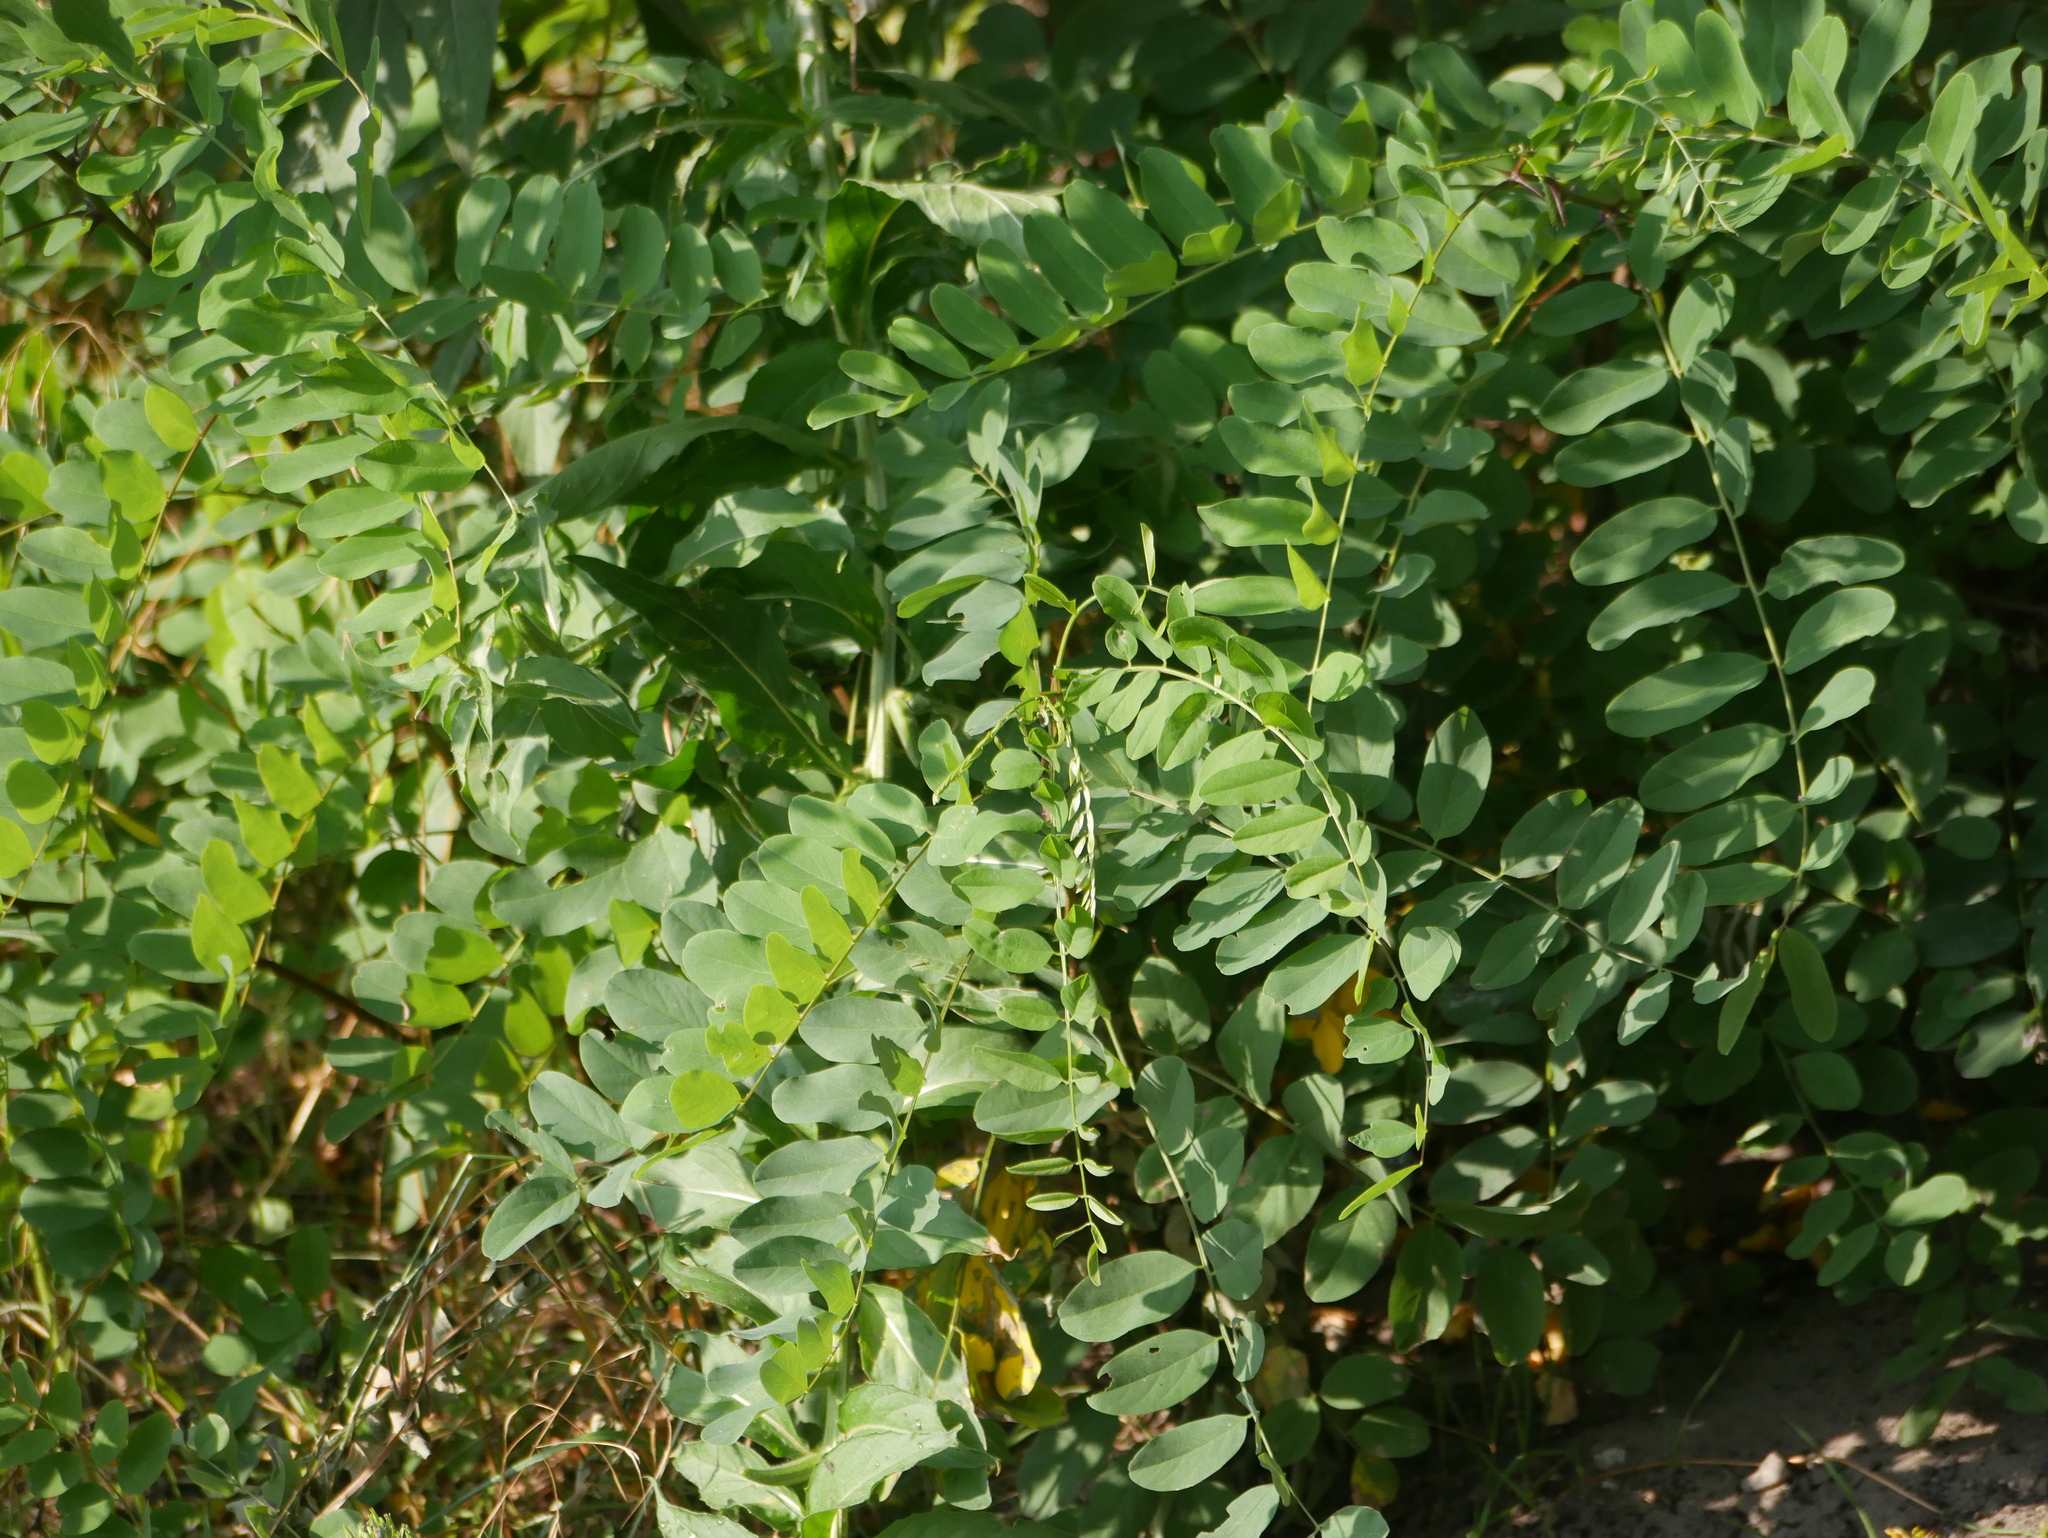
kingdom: Plantae
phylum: Tracheophyta
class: Magnoliopsida
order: Fabales
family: Fabaceae
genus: Robinia
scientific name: Robinia pseudoacacia
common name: Black locust
